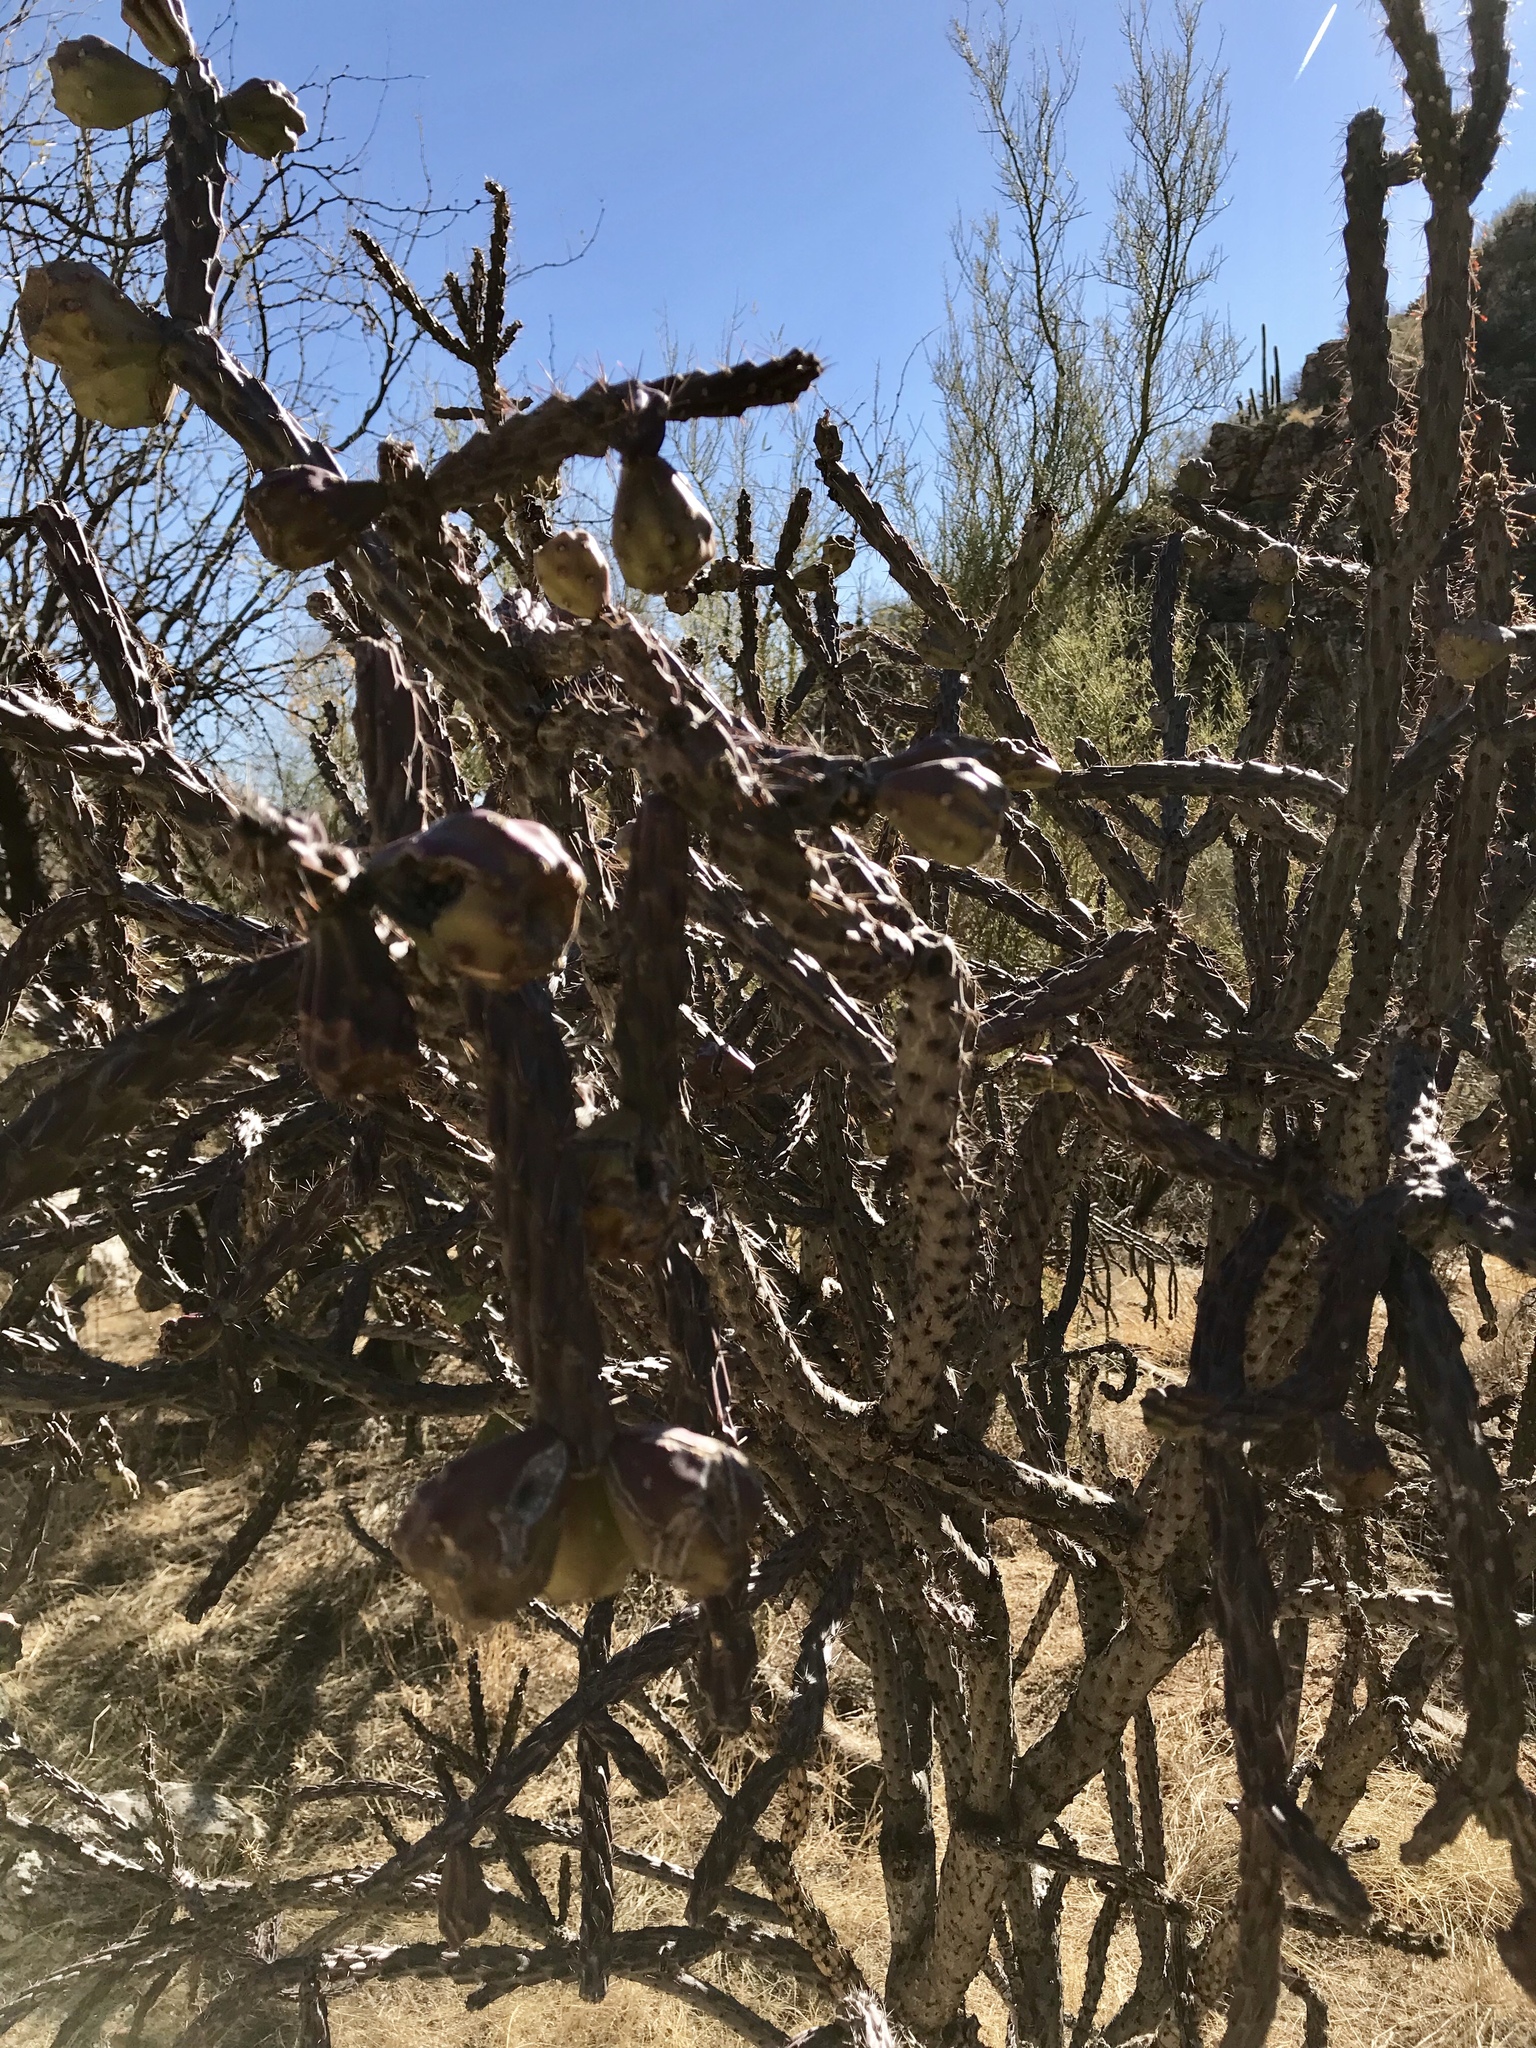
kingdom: Plantae
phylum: Tracheophyta
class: Magnoliopsida
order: Caryophyllales
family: Cactaceae
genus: Cylindropuntia
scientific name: Cylindropuntia thurberi
